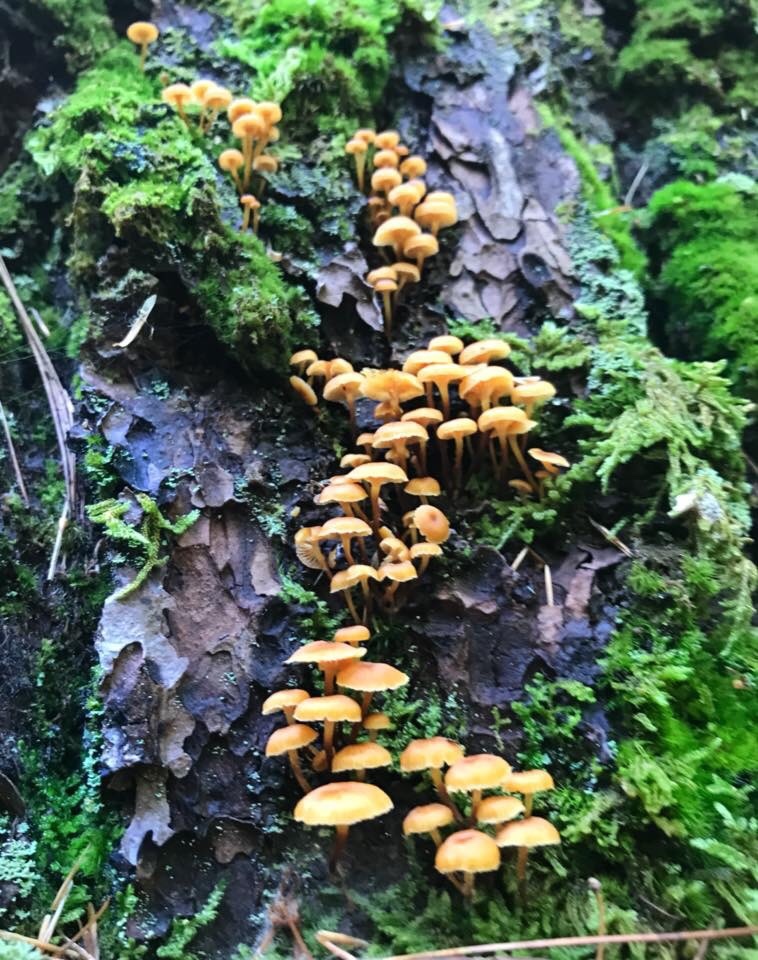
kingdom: Fungi
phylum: Basidiomycota
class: Agaricomycetes
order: Agaricales
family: Mycenaceae
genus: Xeromphalina
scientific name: Xeromphalina campanella
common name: Pinewood gingertail
